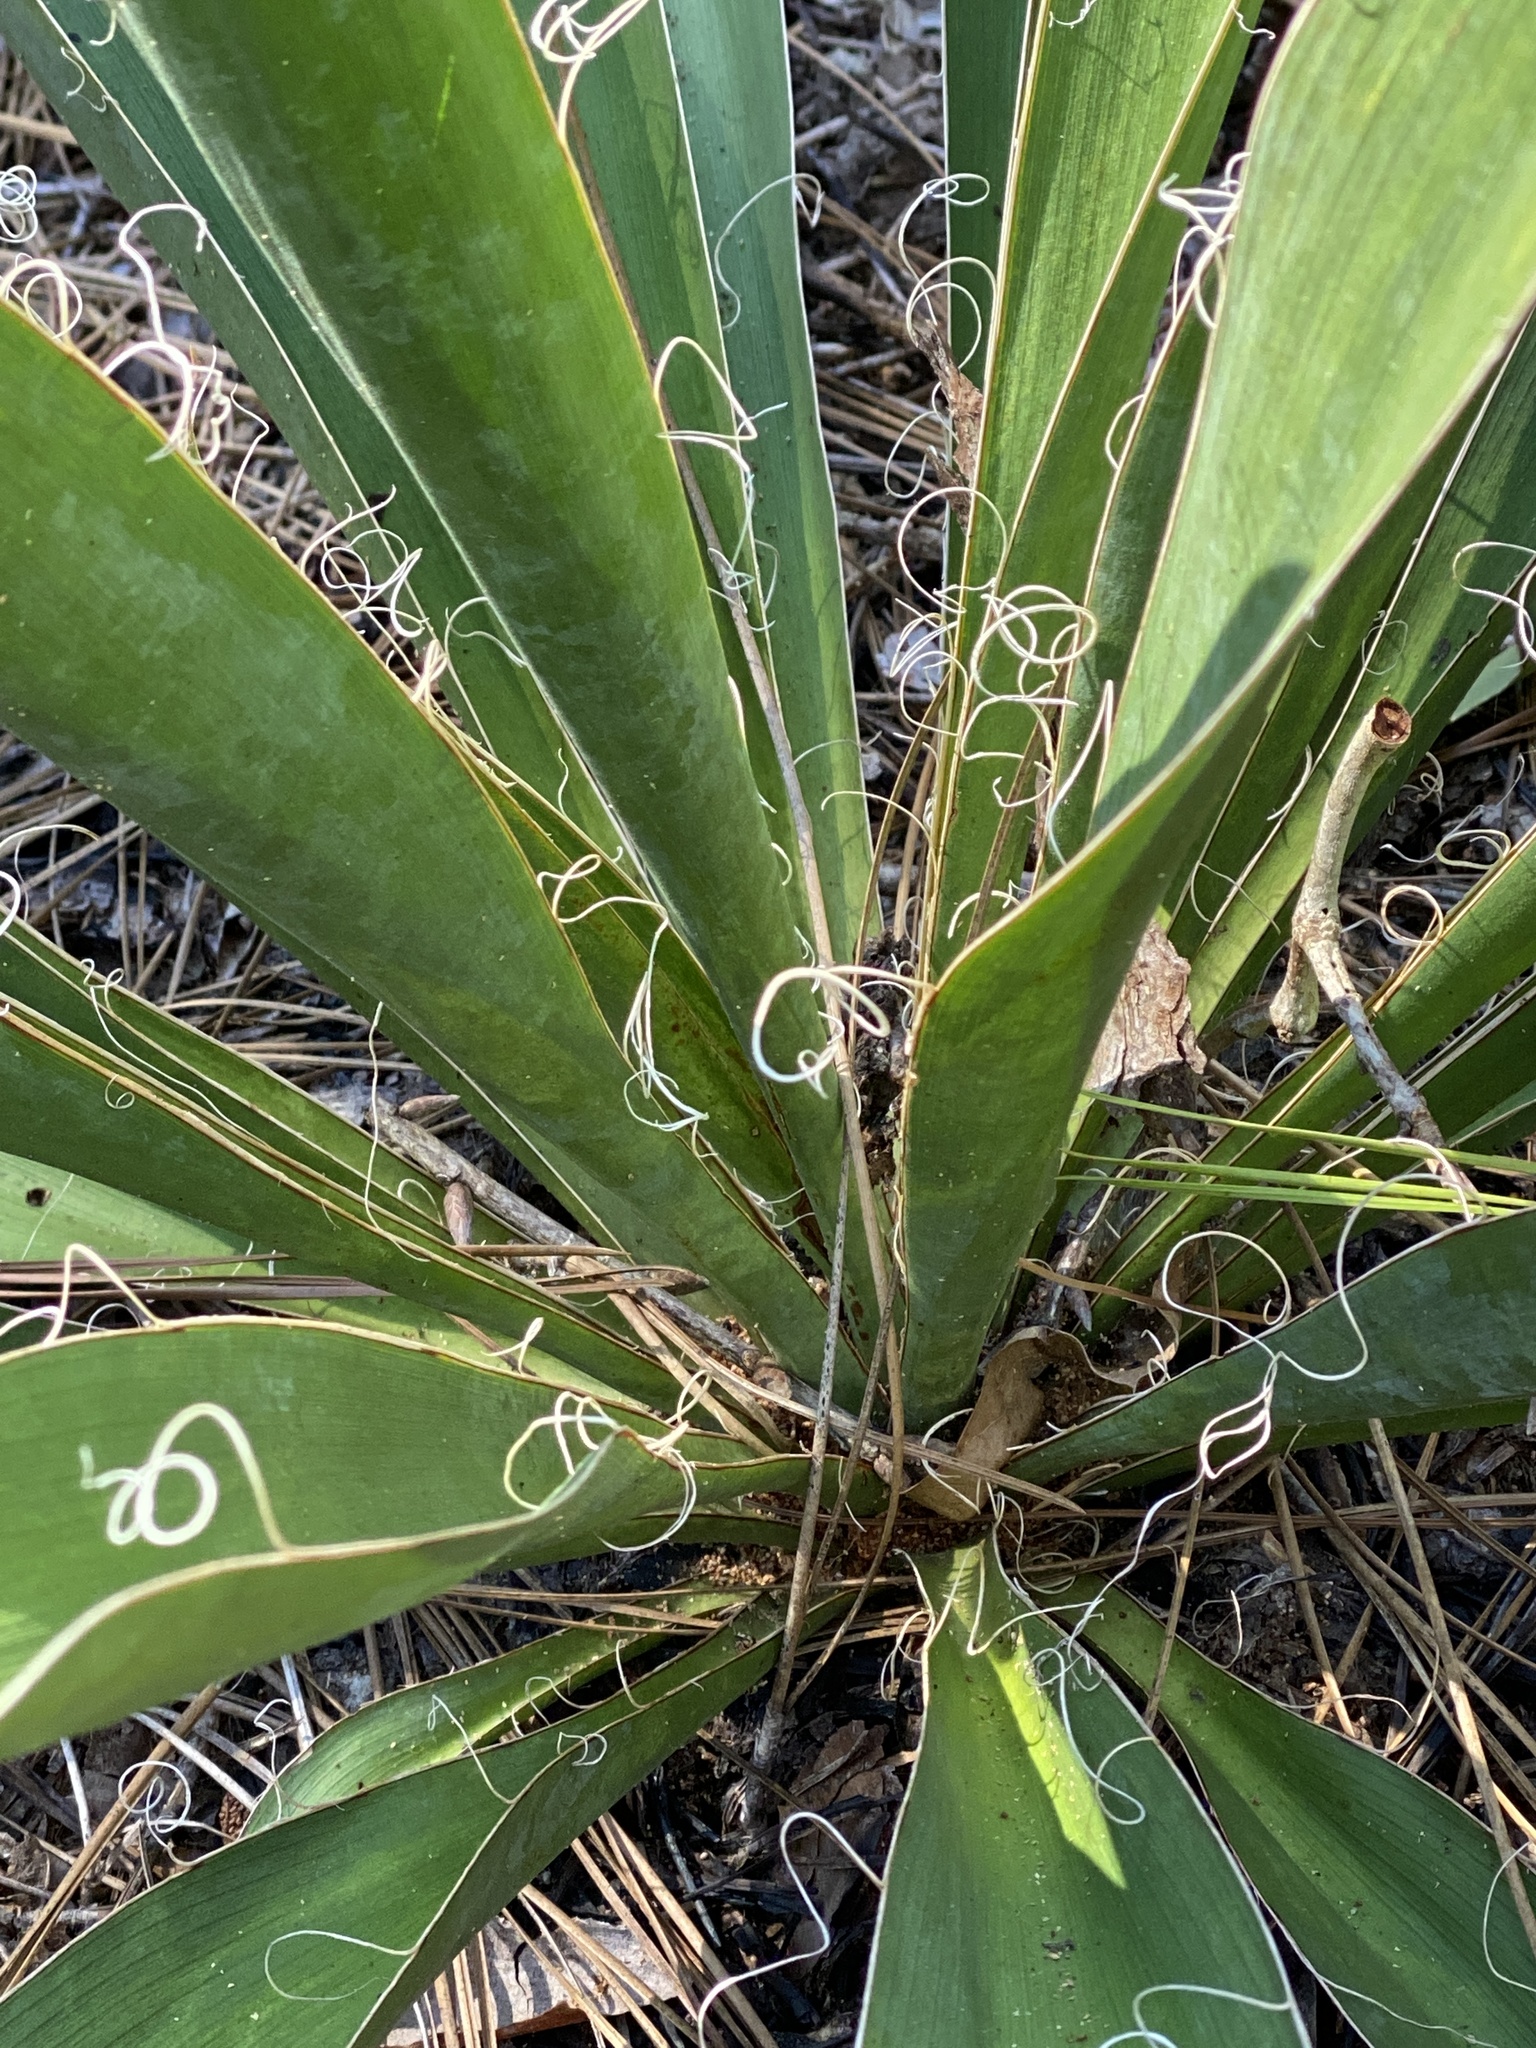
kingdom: Plantae
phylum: Tracheophyta
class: Liliopsida
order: Asparagales
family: Asparagaceae
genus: Yucca
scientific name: Yucca filamentosa
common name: Adam's-needle
